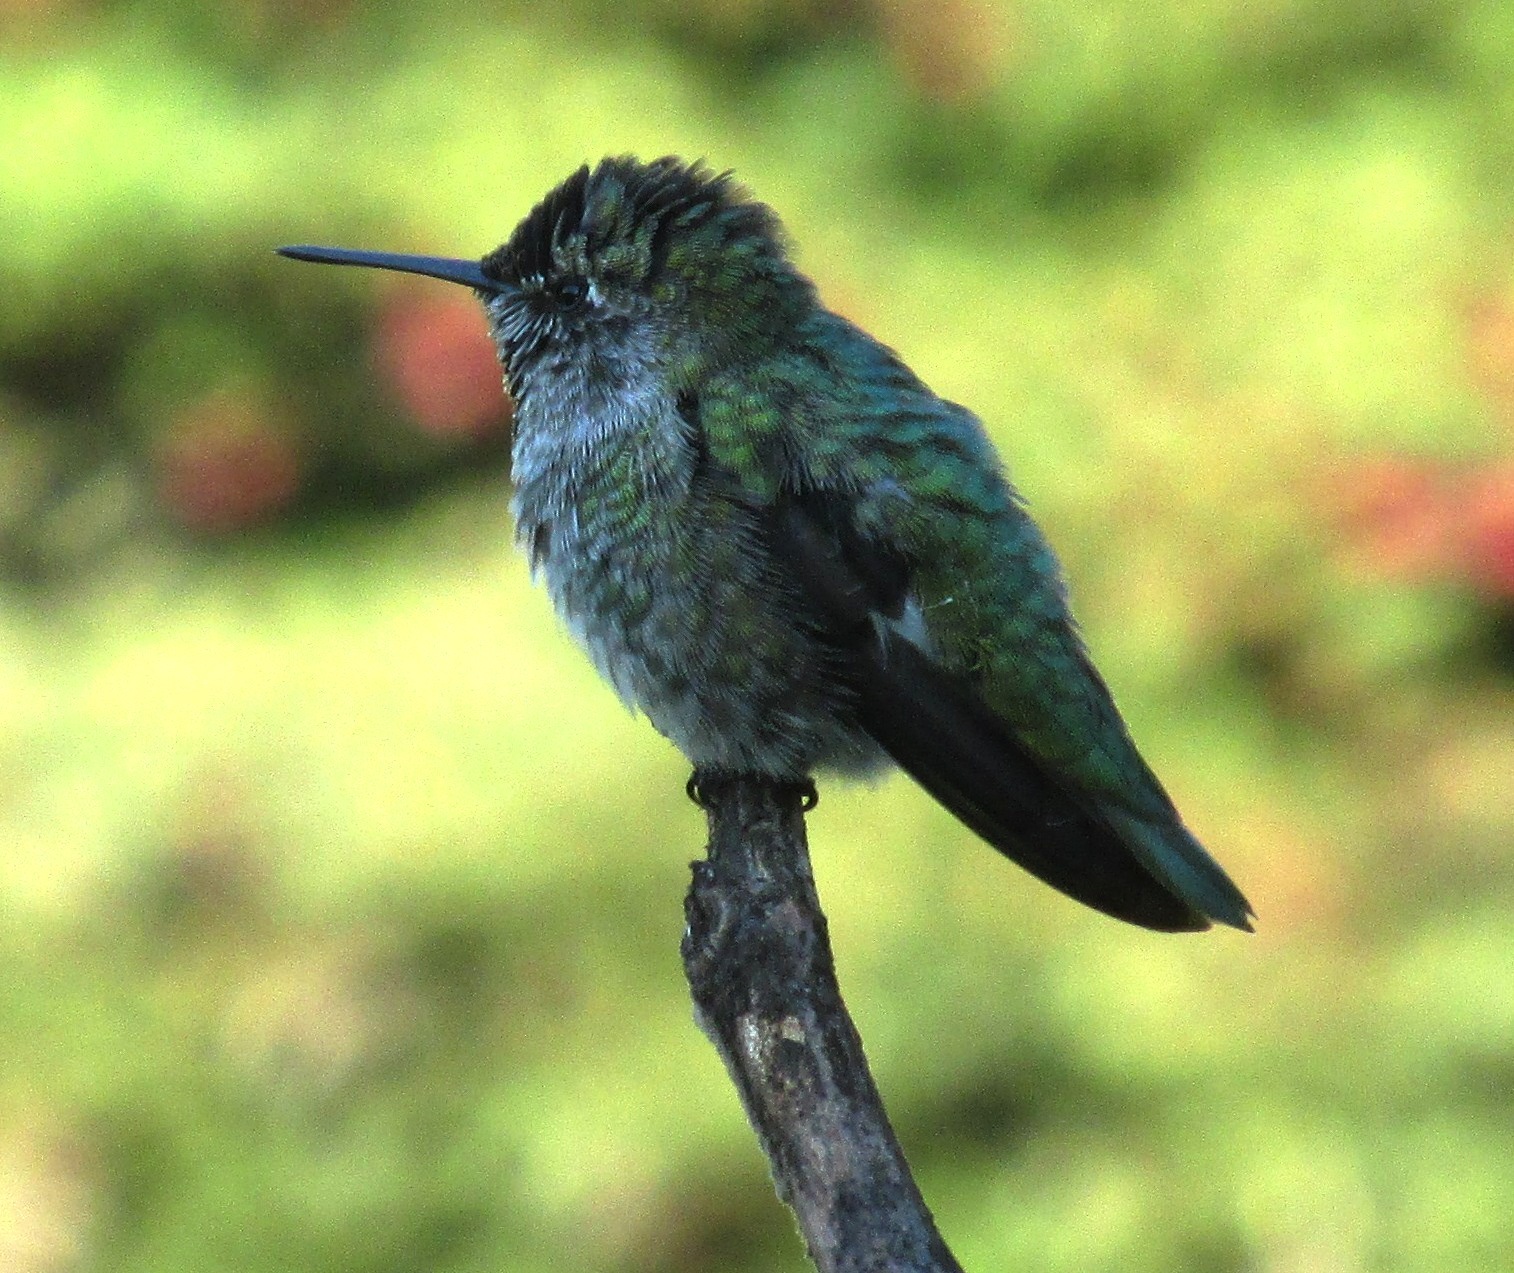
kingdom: Animalia
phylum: Chordata
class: Aves
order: Apodiformes
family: Trochilidae
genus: Calypte
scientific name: Calypte anna
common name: Anna's hummingbird
